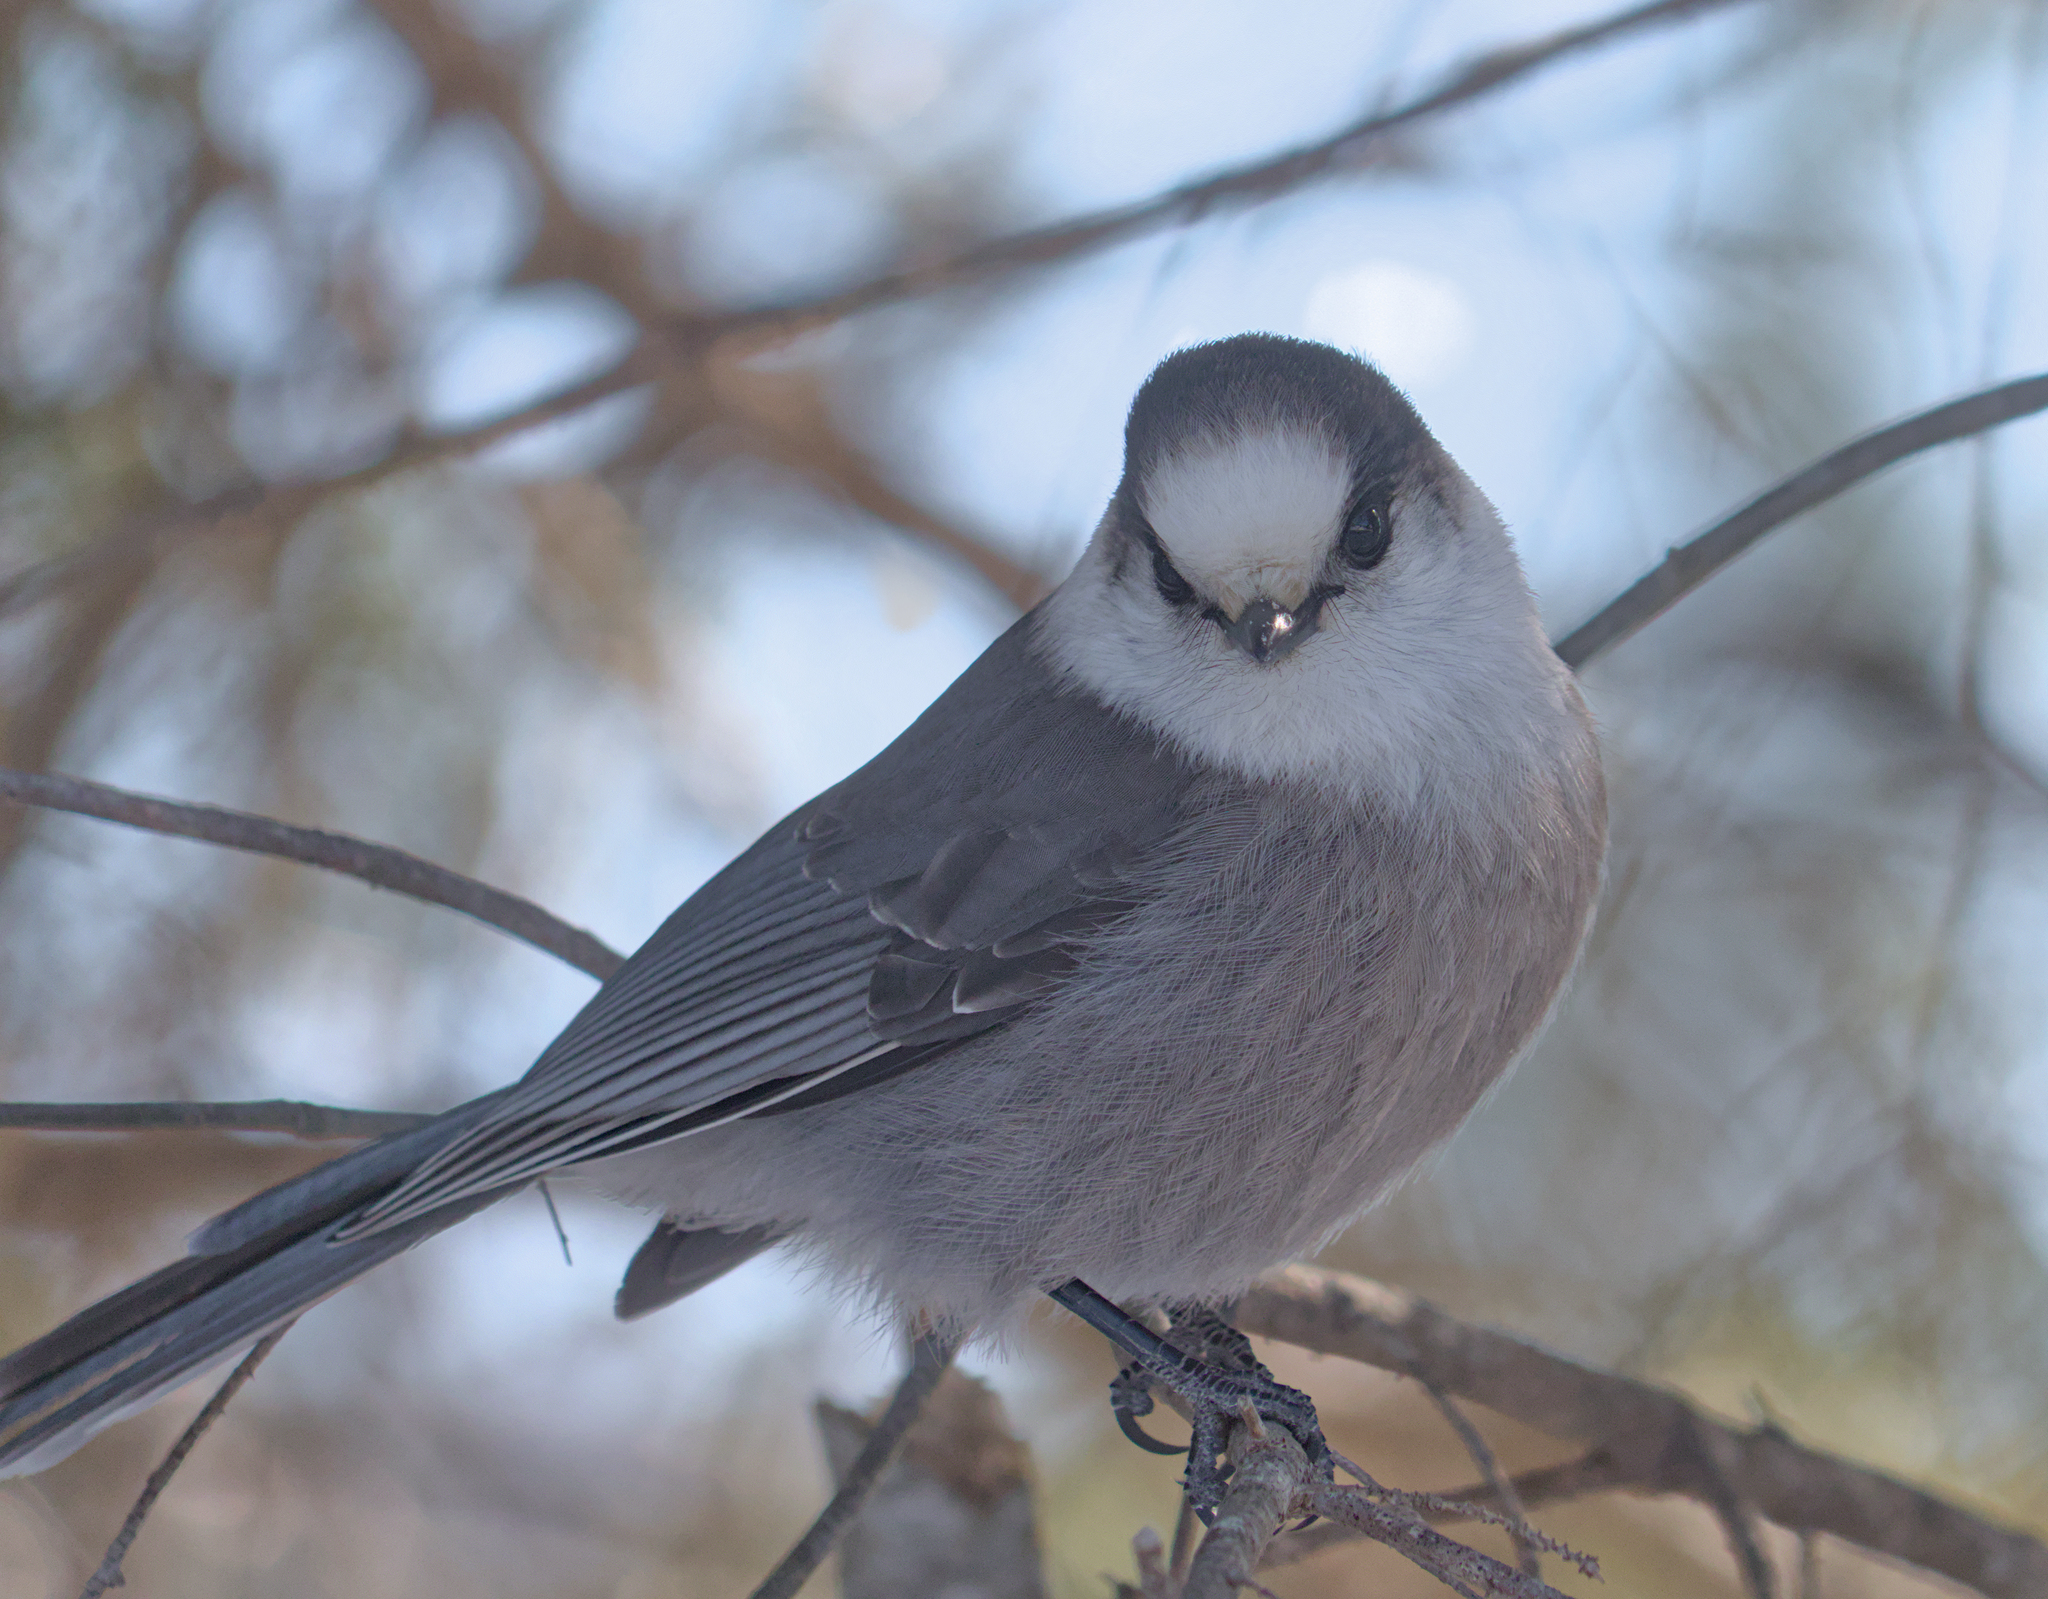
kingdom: Animalia
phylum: Chordata
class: Aves
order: Passeriformes
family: Corvidae
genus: Perisoreus
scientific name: Perisoreus canadensis
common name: Gray jay
